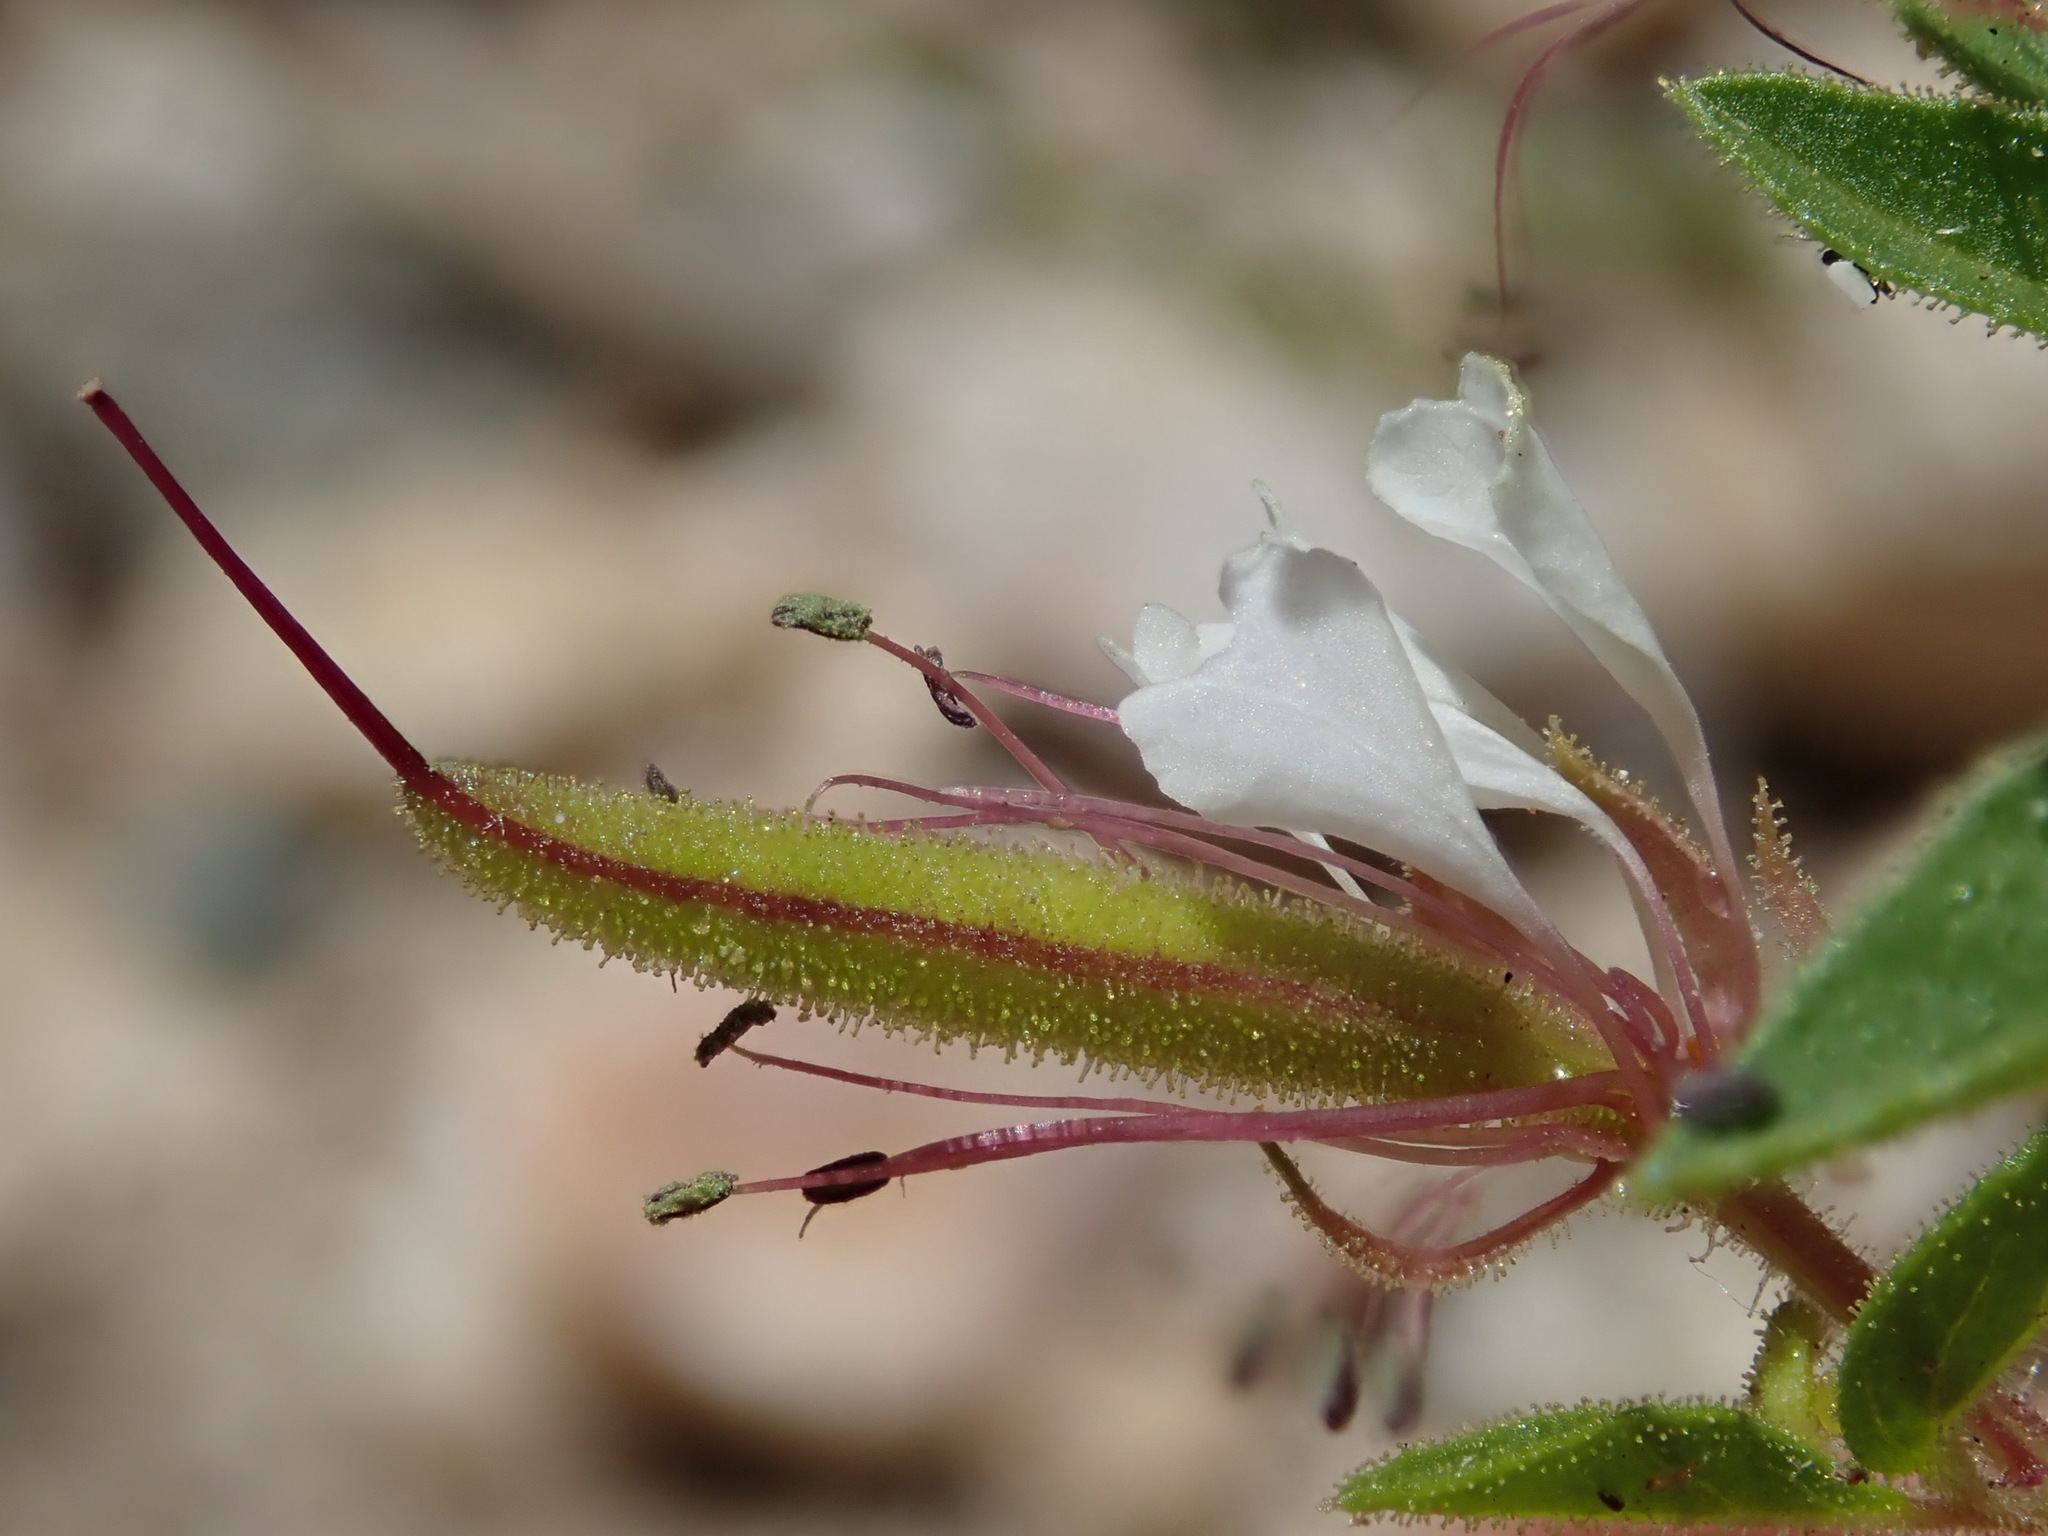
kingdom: Plantae
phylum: Tracheophyta
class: Magnoliopsida
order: Brassicales
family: Cleomaceae
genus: Polanisia
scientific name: Polanisia dodecandra
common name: Clammyweed
